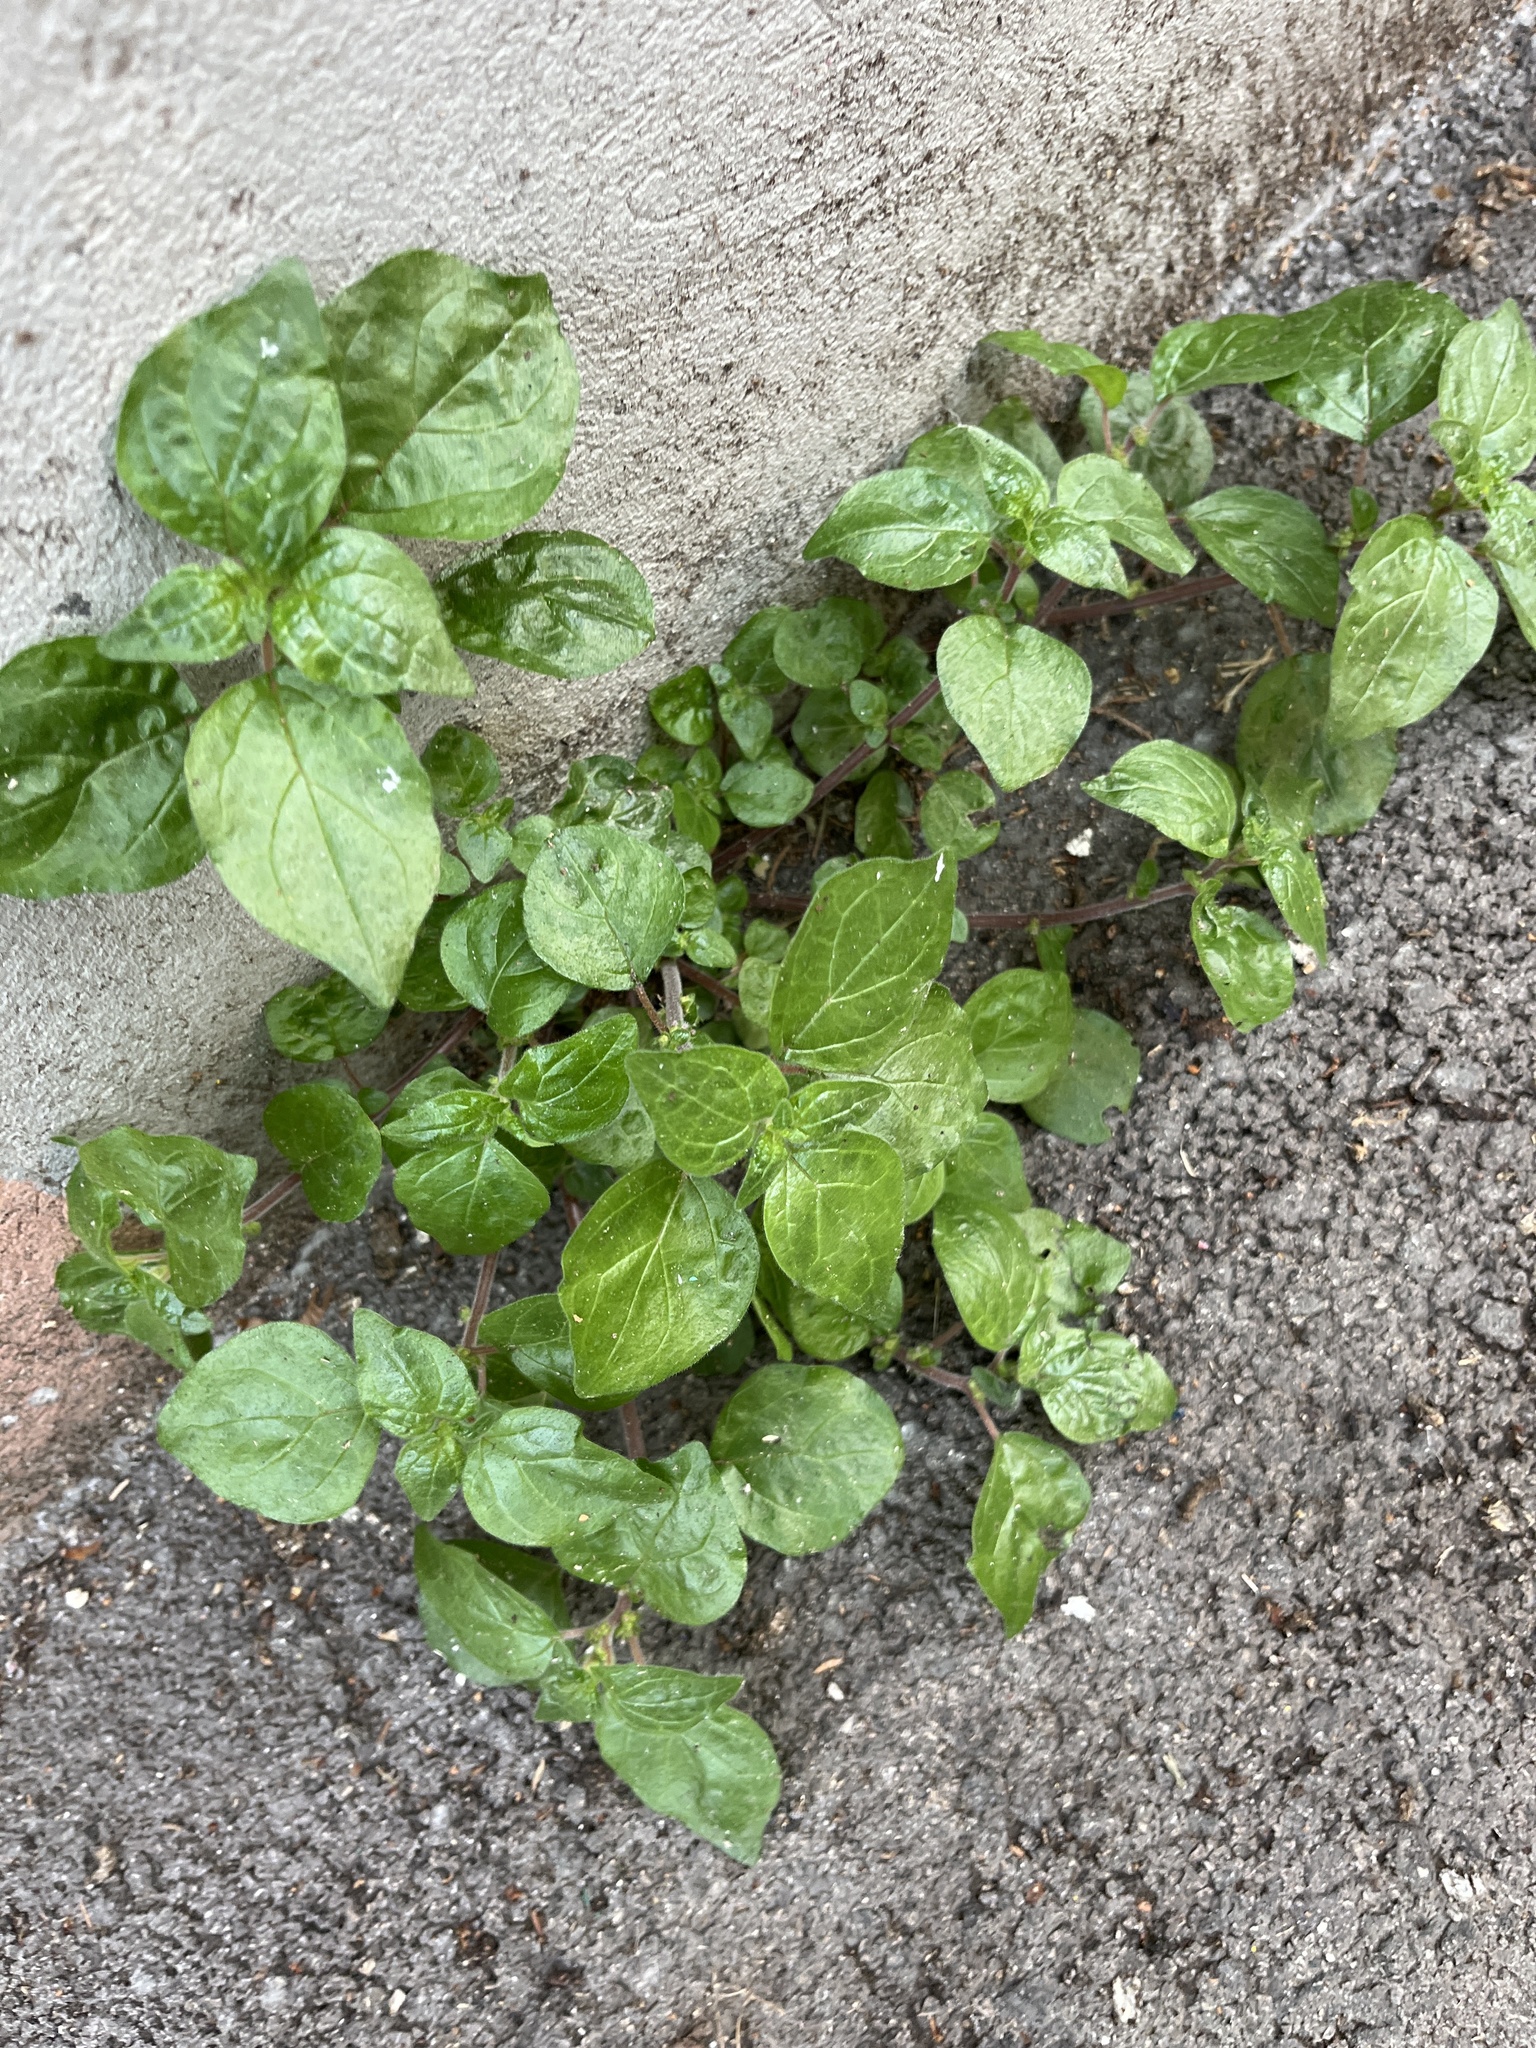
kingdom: Plantae
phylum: Tracheophyta
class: Magnoliopsida
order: Rosales
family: Urticaceae
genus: Parietaria
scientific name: Parietaria judaica
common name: Pellitory-of-the-wall
